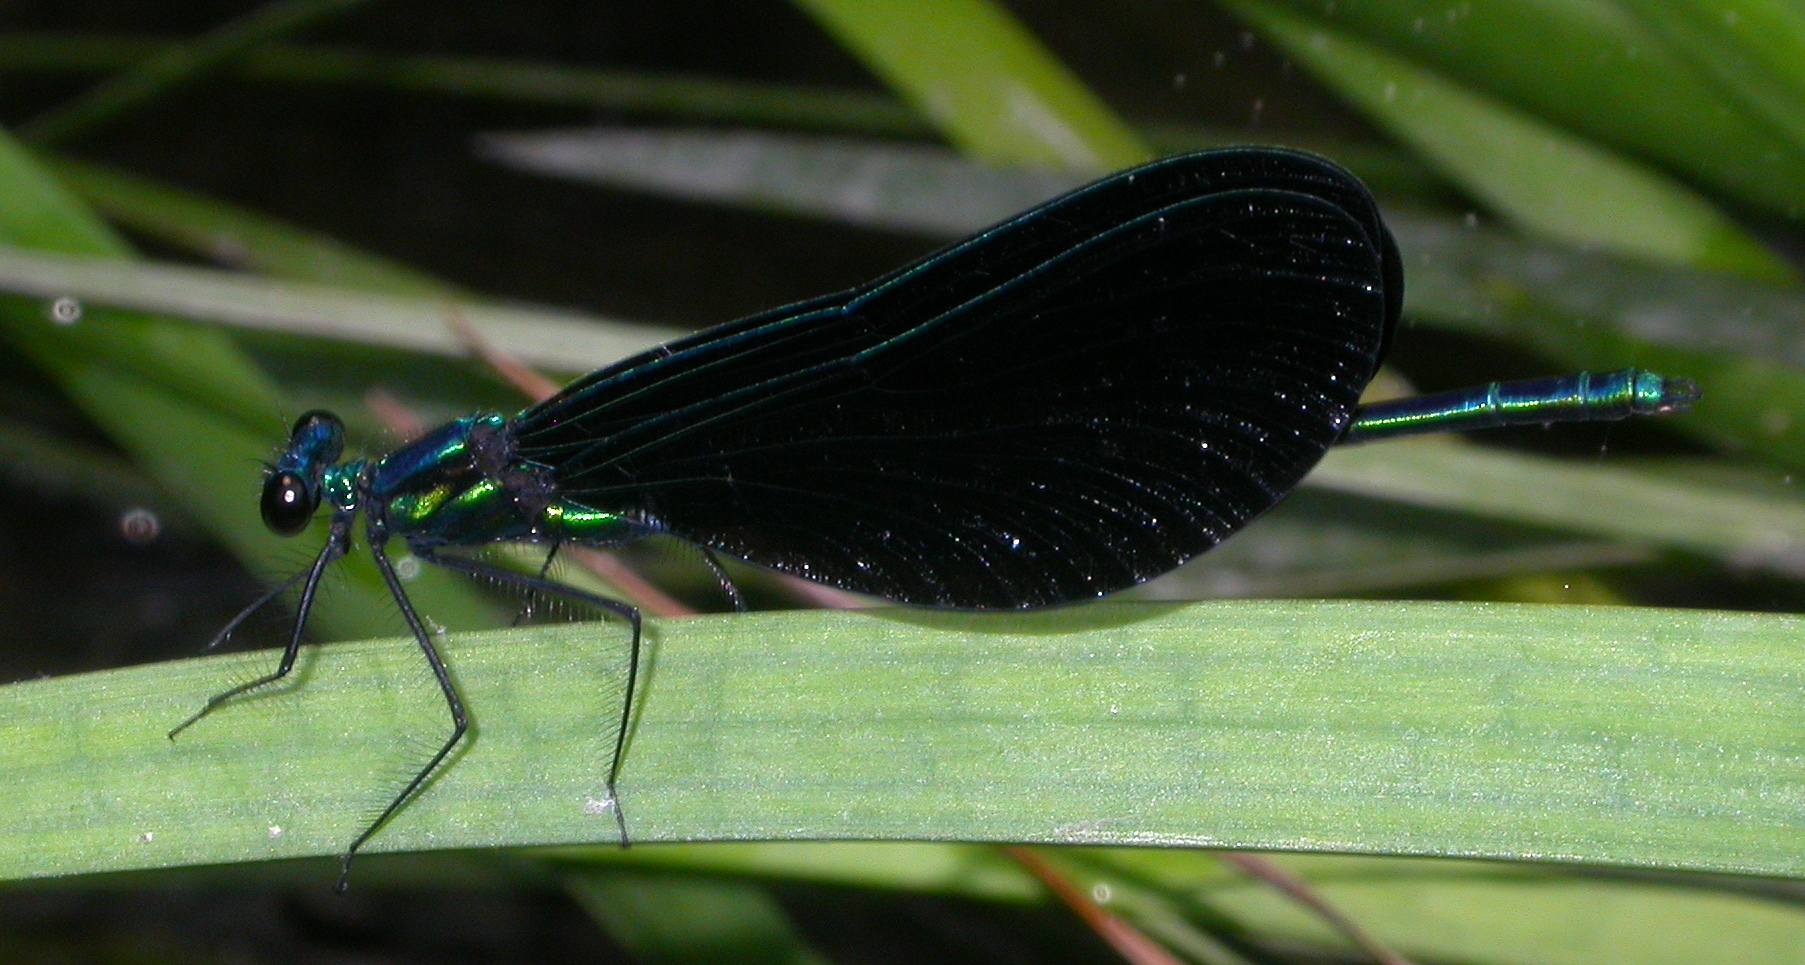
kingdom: Animalia
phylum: Arthropoda
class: Insecta
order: Odonata
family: Calopterygidae
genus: Calopteryx
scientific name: Calopteryx maculata
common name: Ebony jewelwing
